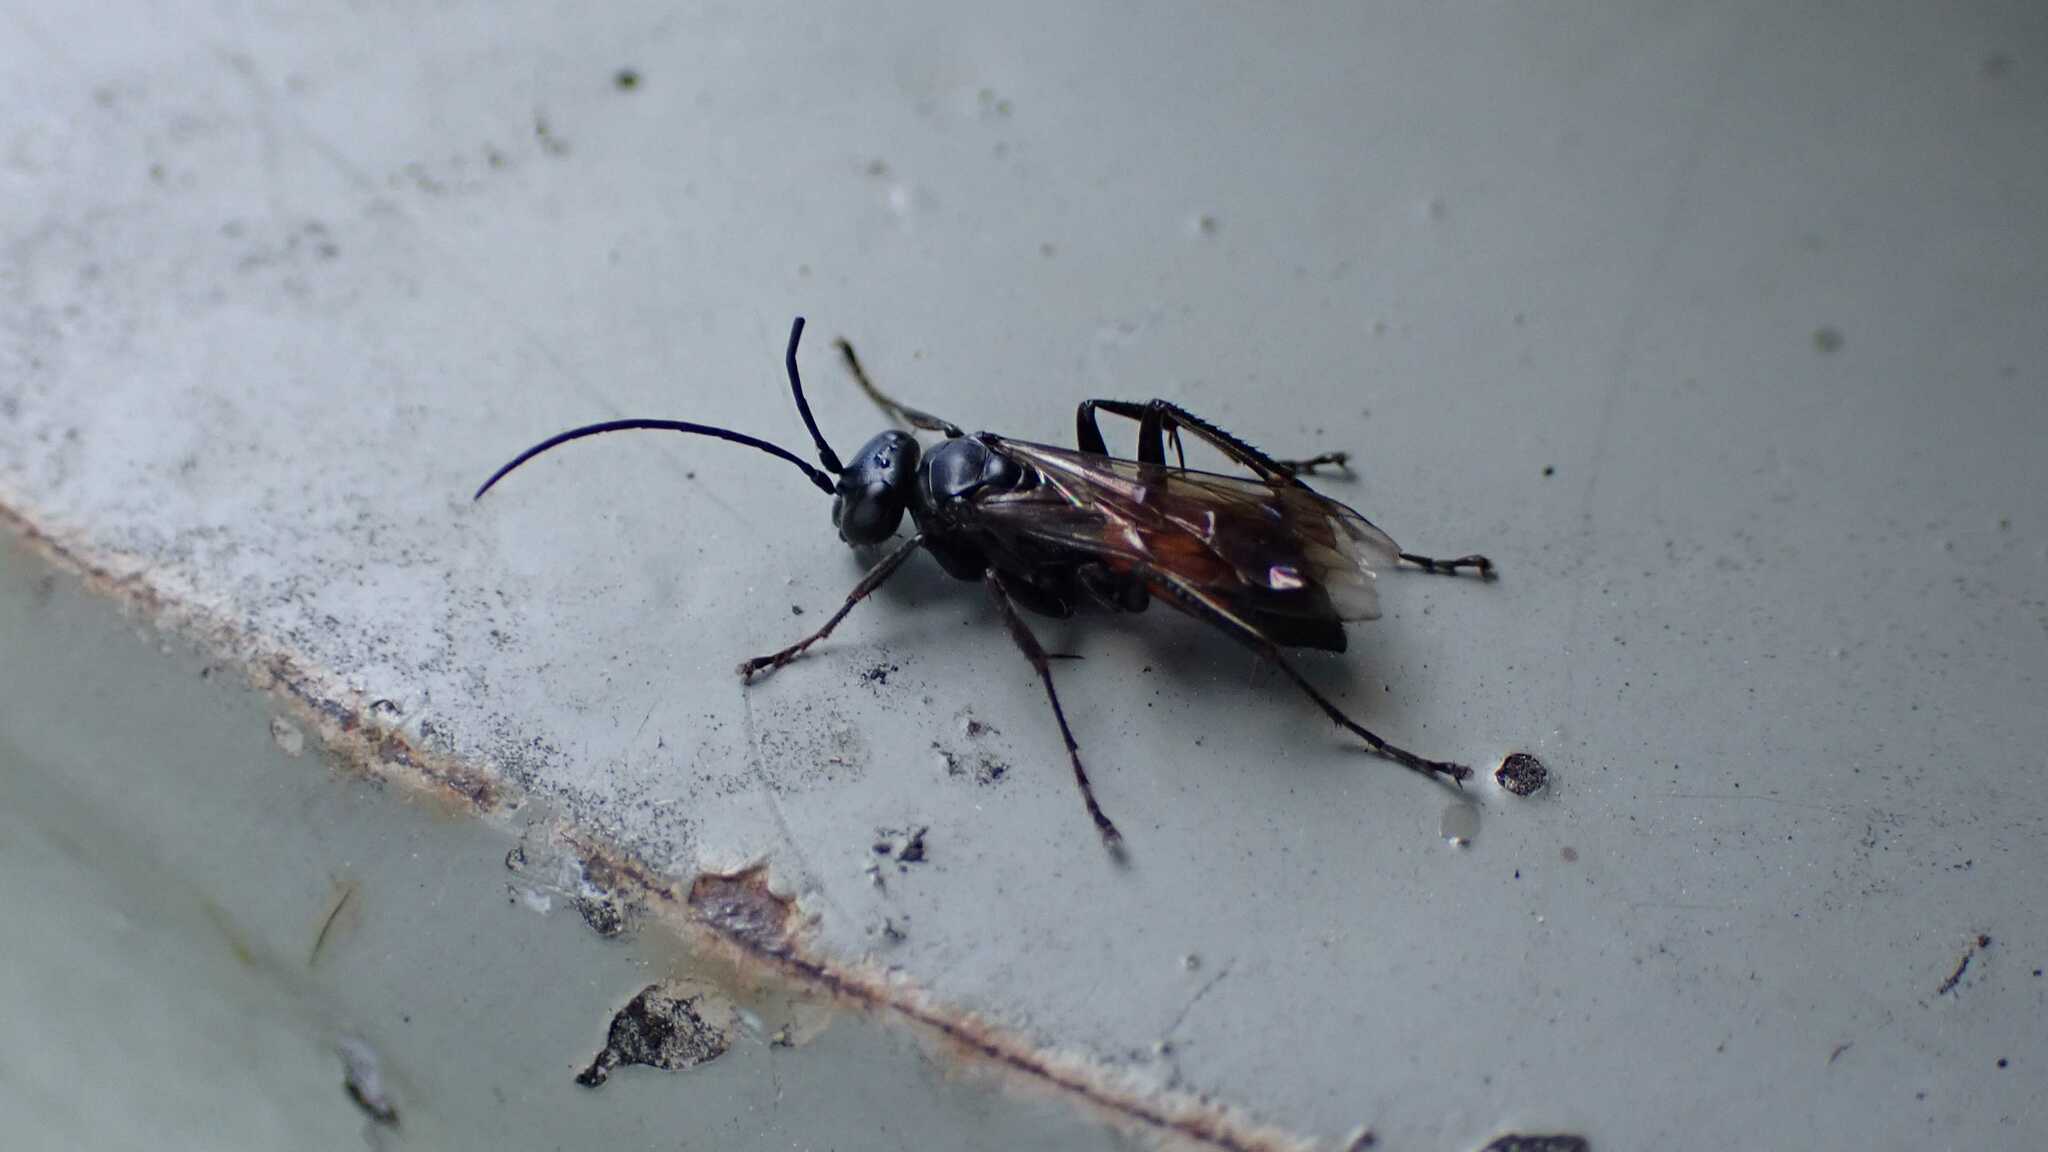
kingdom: Animalia
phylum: Arthropoda
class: Insecta
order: Hymenoptera
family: Pompilidae
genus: Caliadurgus
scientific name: Caliadurgus fasciatellus
